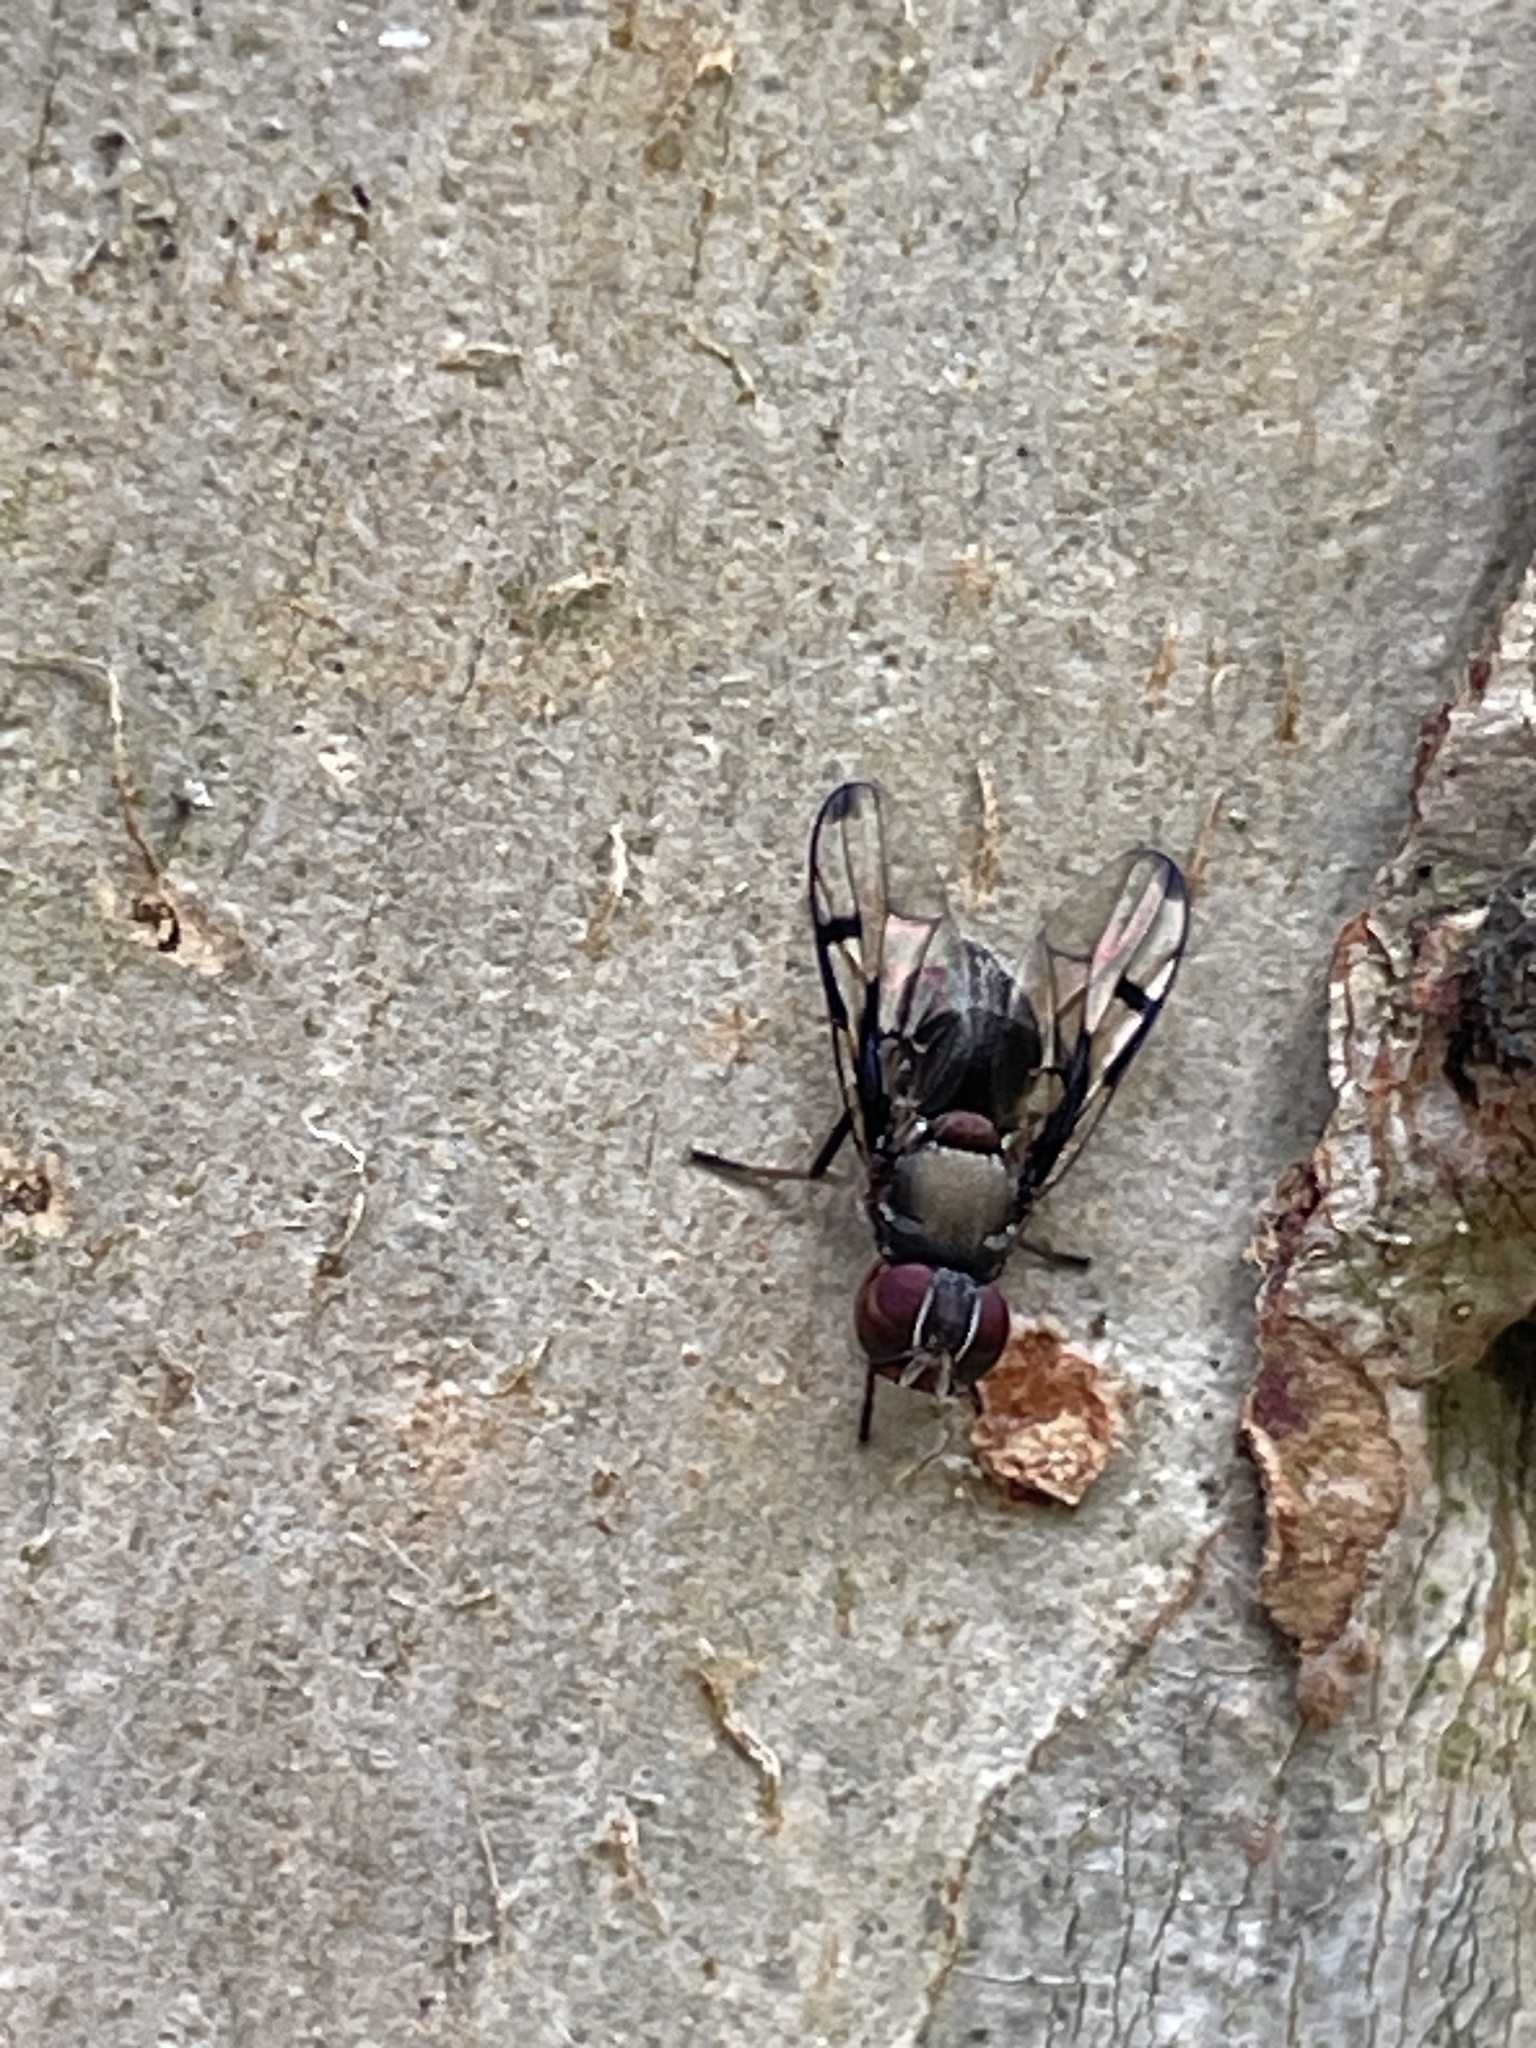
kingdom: Animalia
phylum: Arthropoda
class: Insecta
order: Diptera
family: Platystomatidae
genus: Pogonortalis
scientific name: Pogonortalis doclea
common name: Boatman fly
